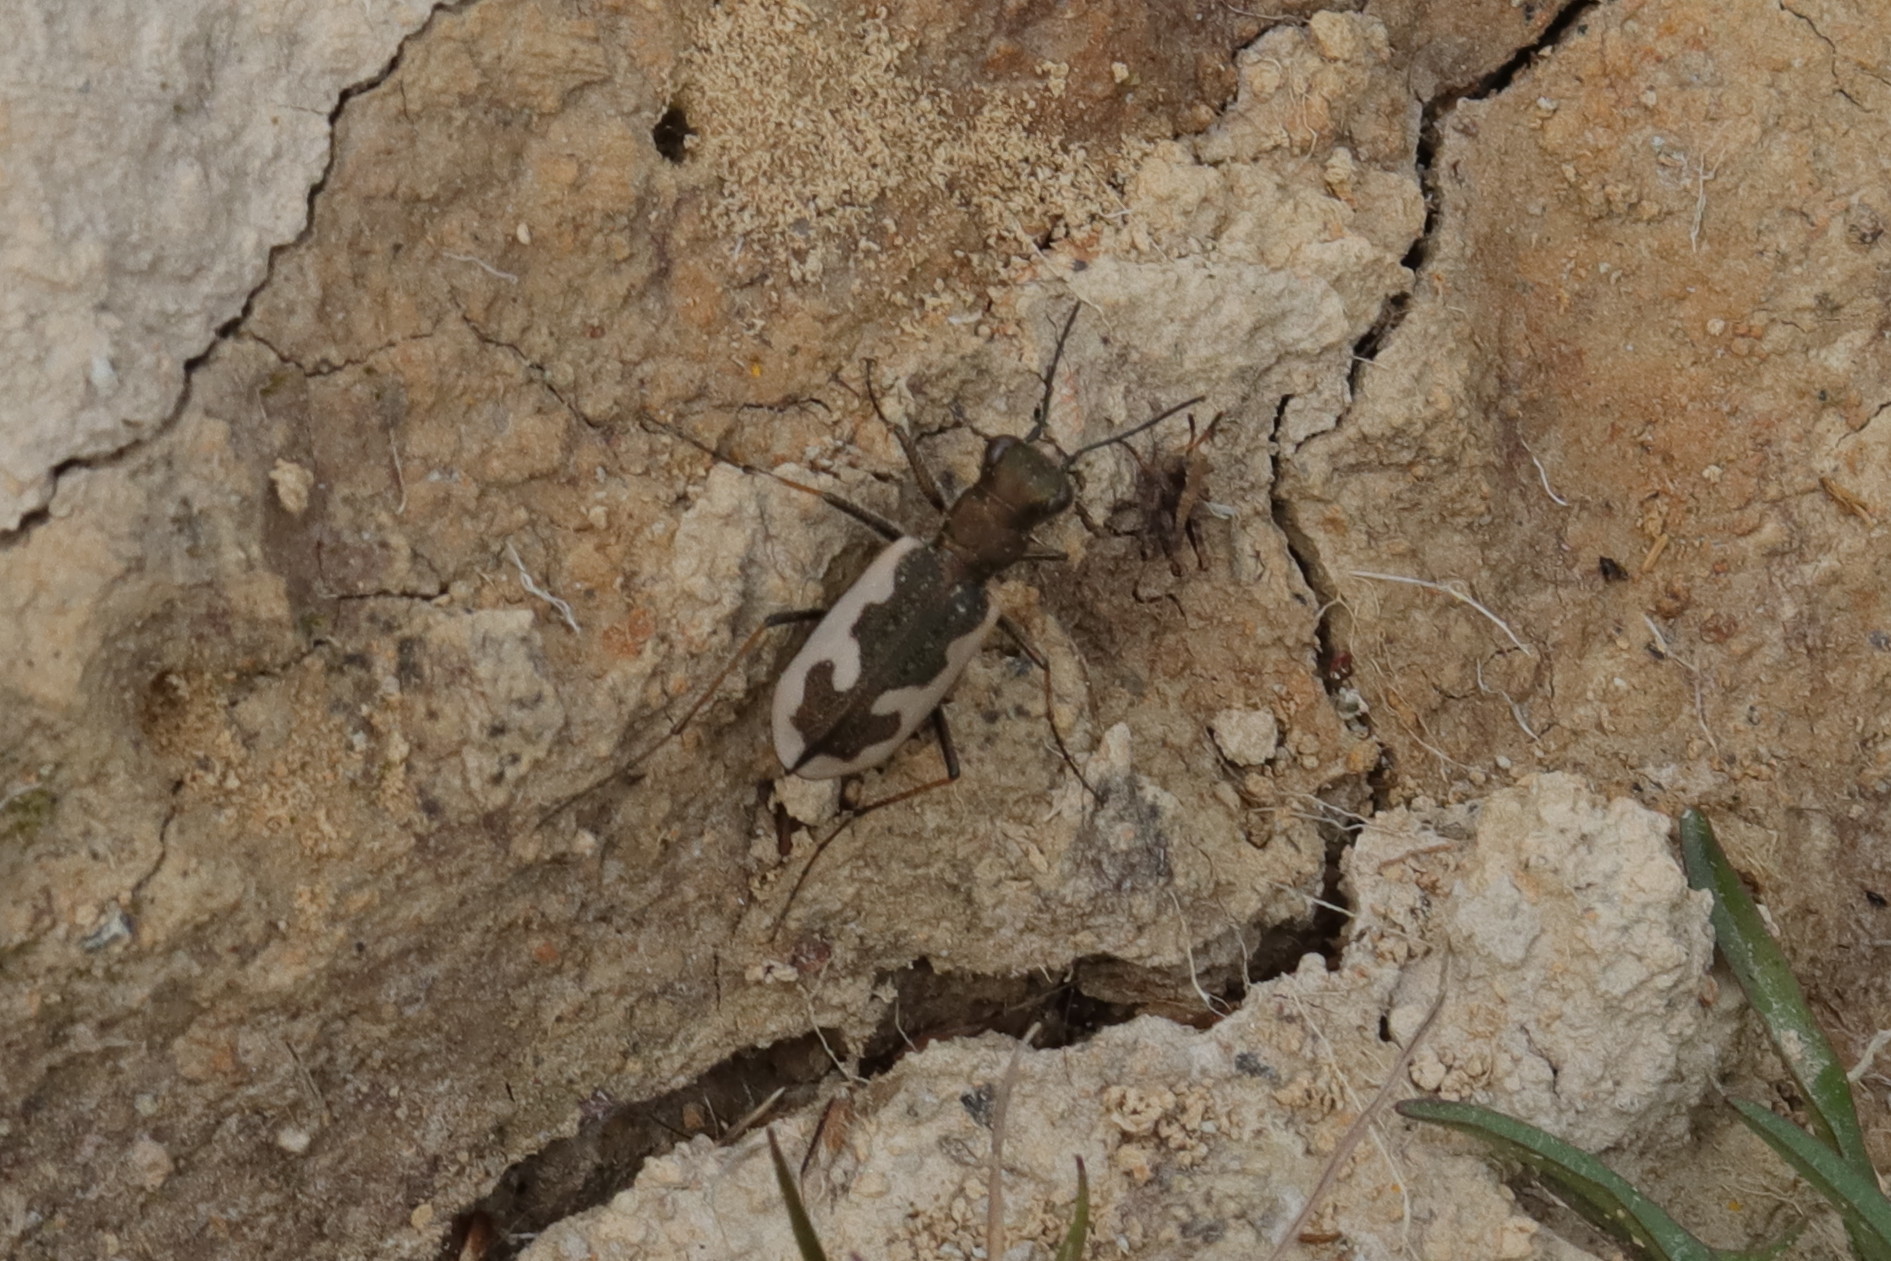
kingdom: Animalia
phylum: Arthropoda
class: Insecta
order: Coleoptera
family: Carabidae
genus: Neocicindela
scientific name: Neocicindela latecincta
